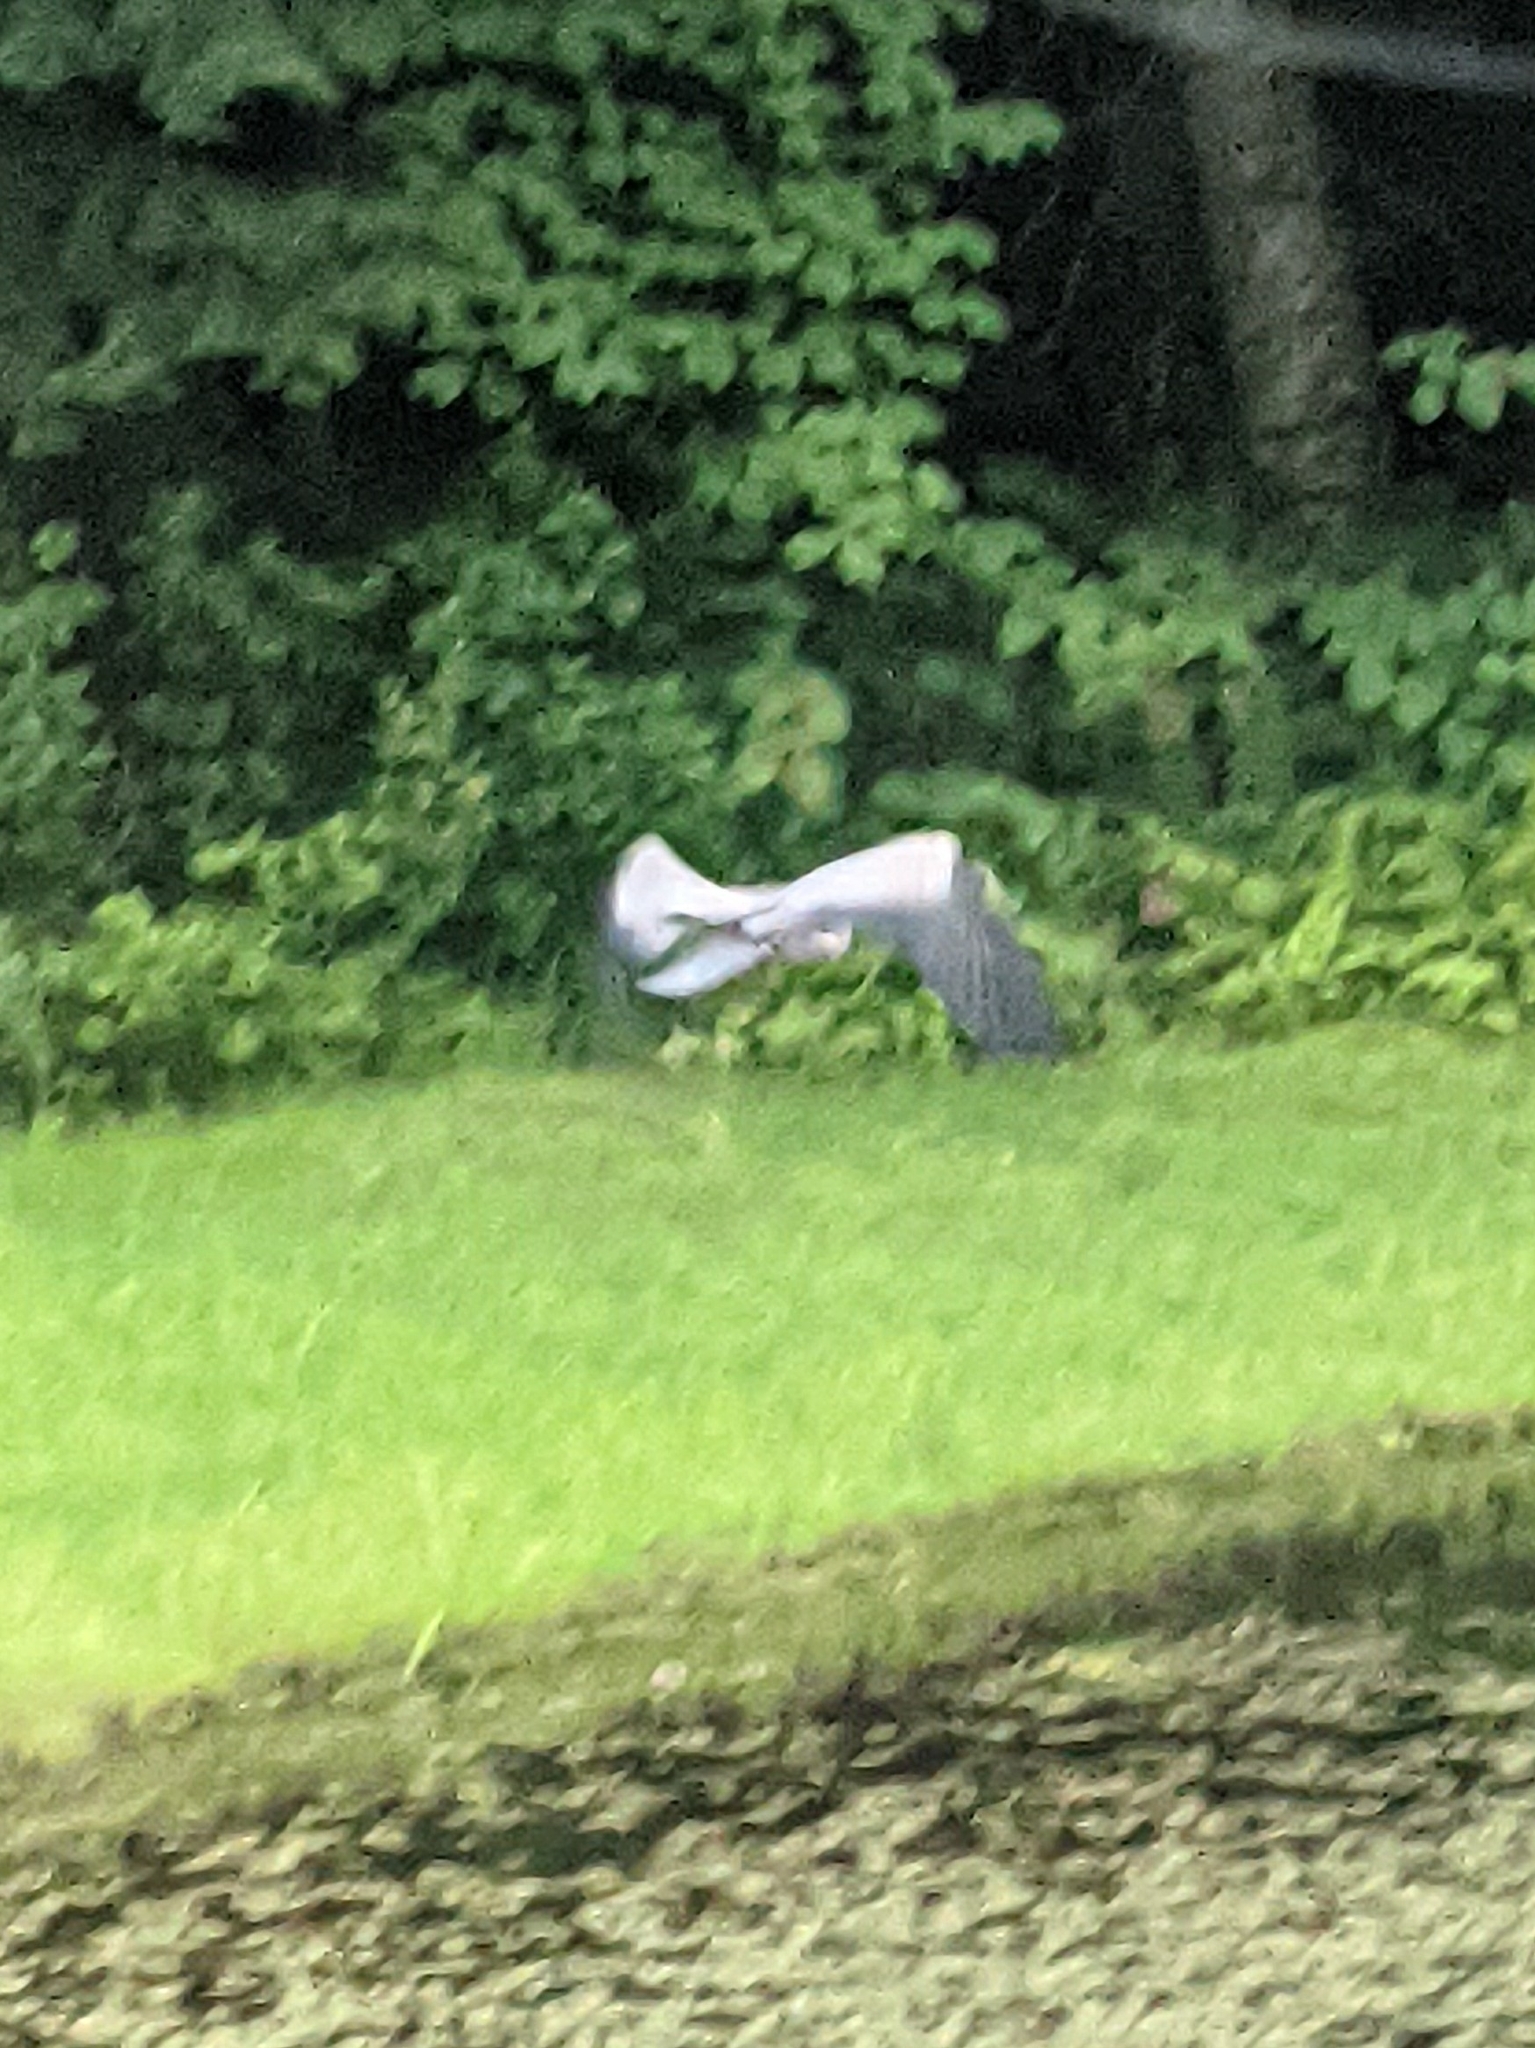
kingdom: Animalia
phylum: Chordata
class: Aves
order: Pelecaniformes
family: Ardeidae
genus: Ardea
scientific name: Ardea herodias
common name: Great blue heron
